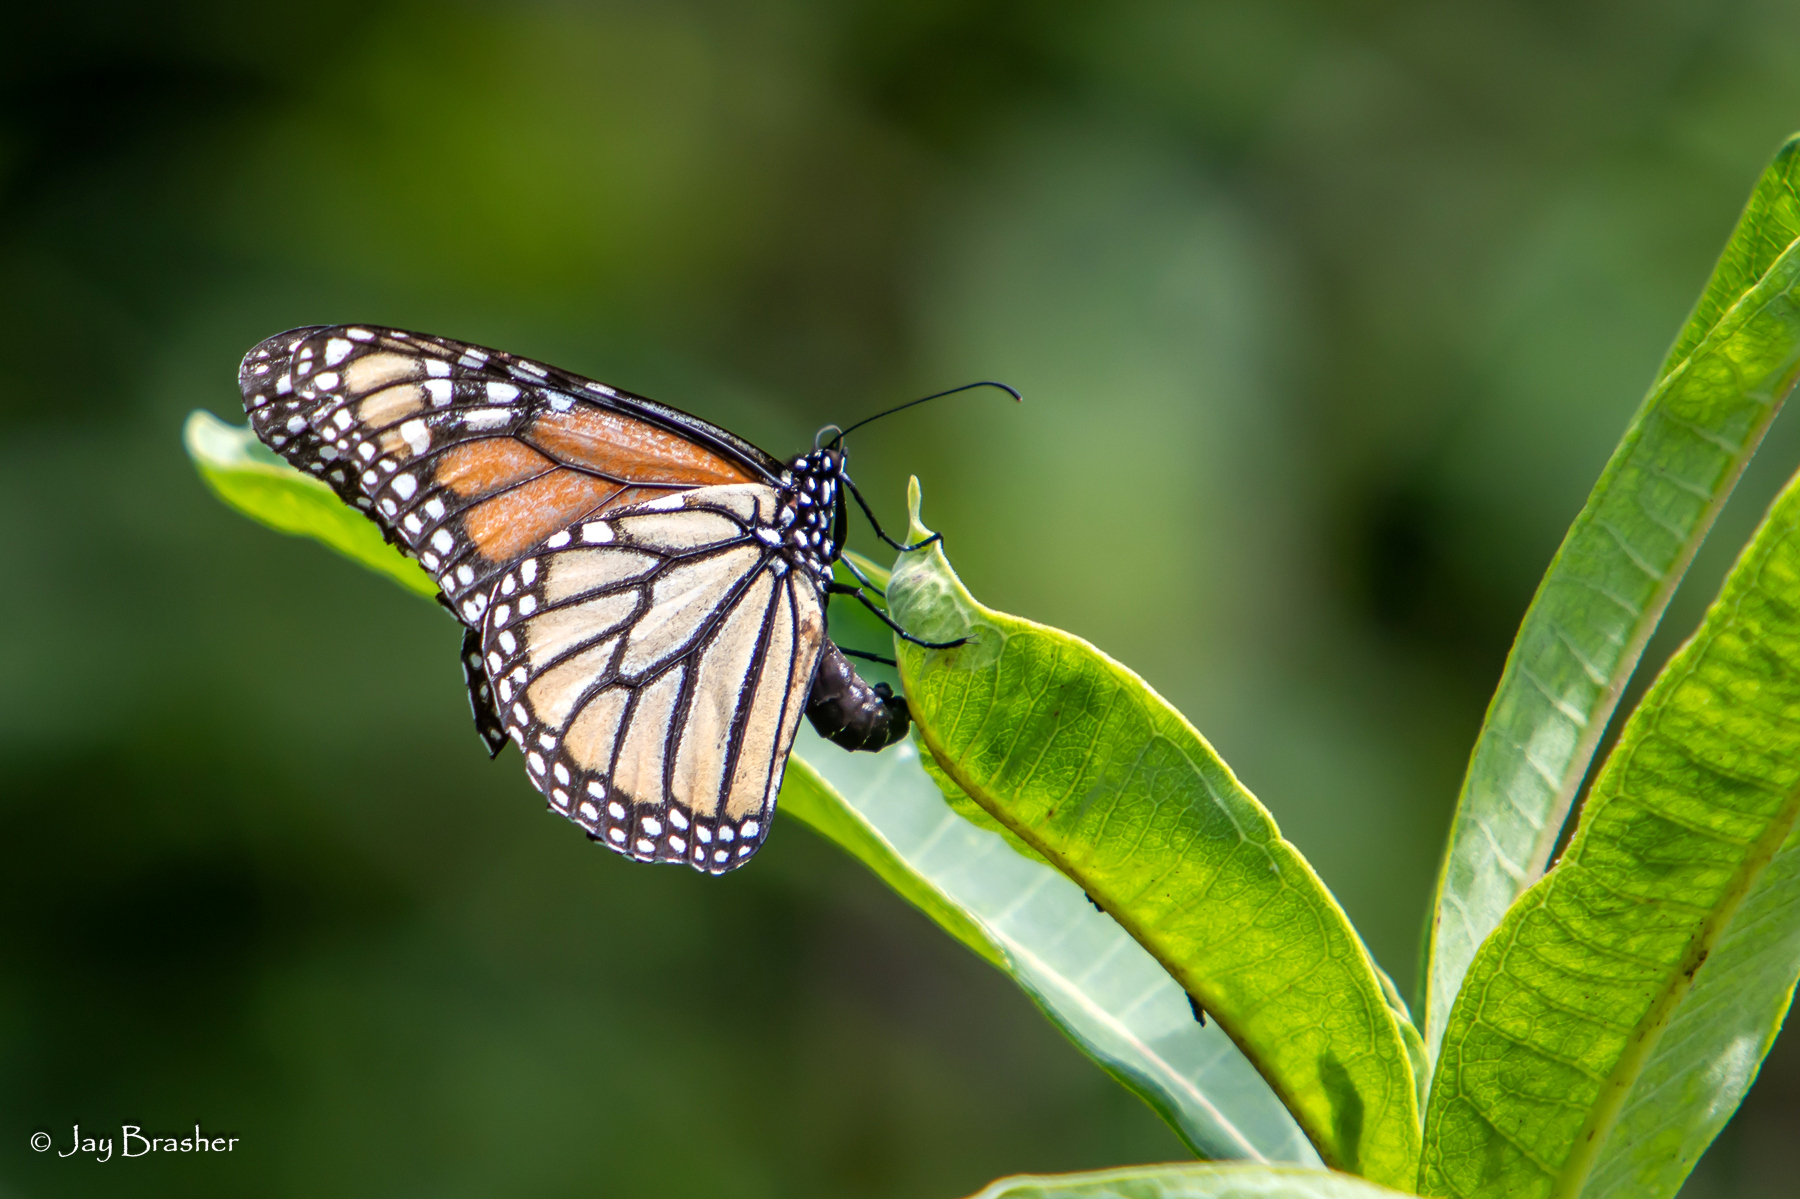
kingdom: Animalia
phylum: Arthropoda
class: Insecta
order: Lepidoptera
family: Nymphalidae
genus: Danaus
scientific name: Danaus plexippus
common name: Monarch
